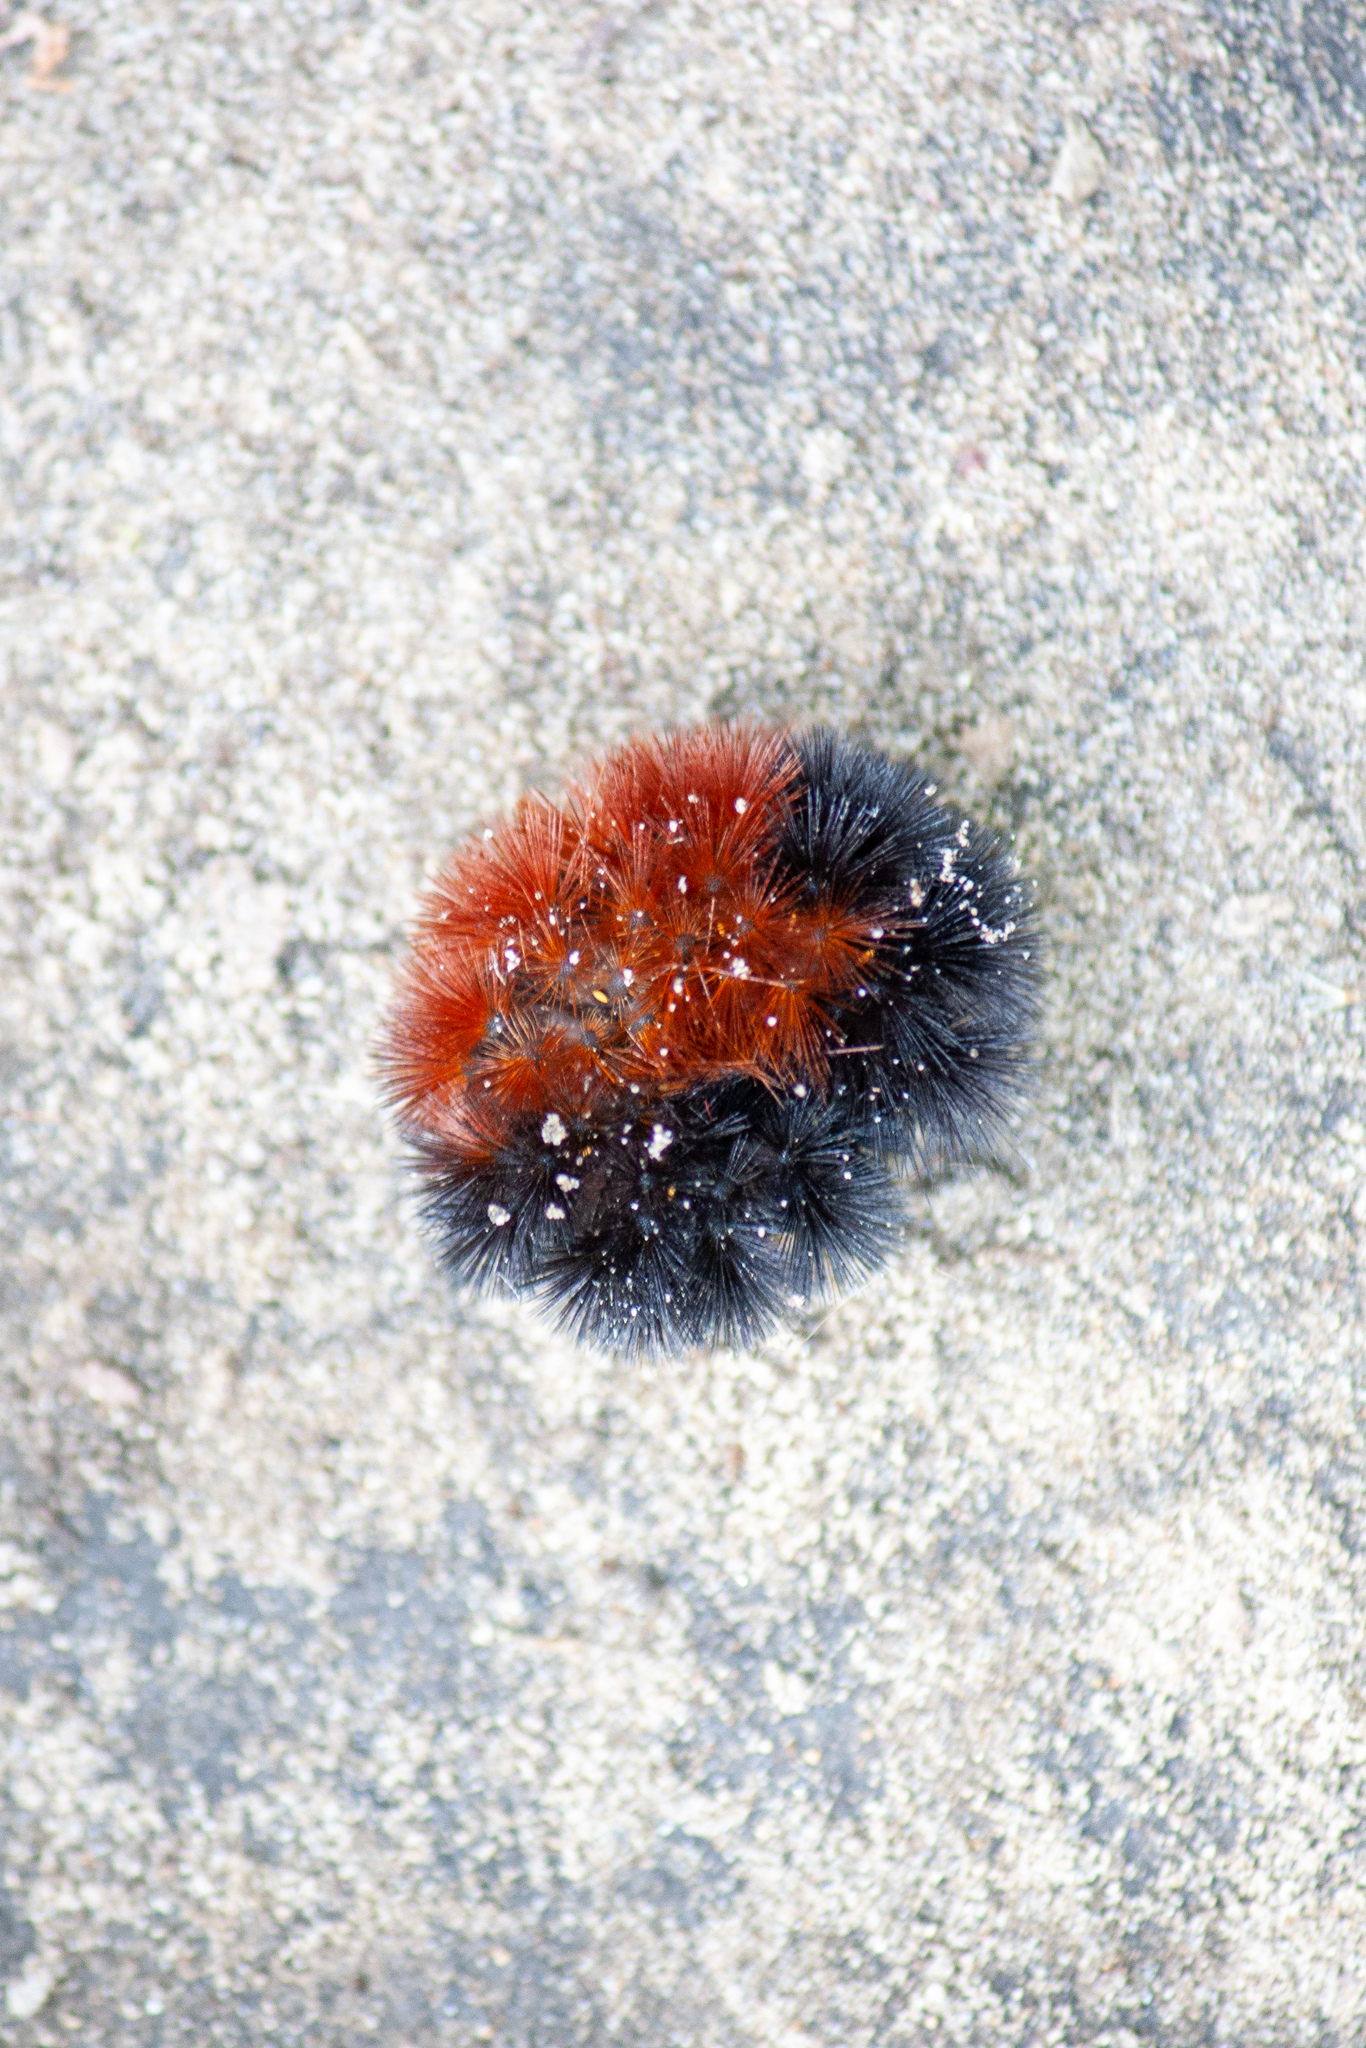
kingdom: Animalia
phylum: Arthropoda
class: Insecta
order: Lepidoptera
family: Erebidae
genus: Pyrrharctia
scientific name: Pyrrharctia isabella
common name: Isabella tiger moth
